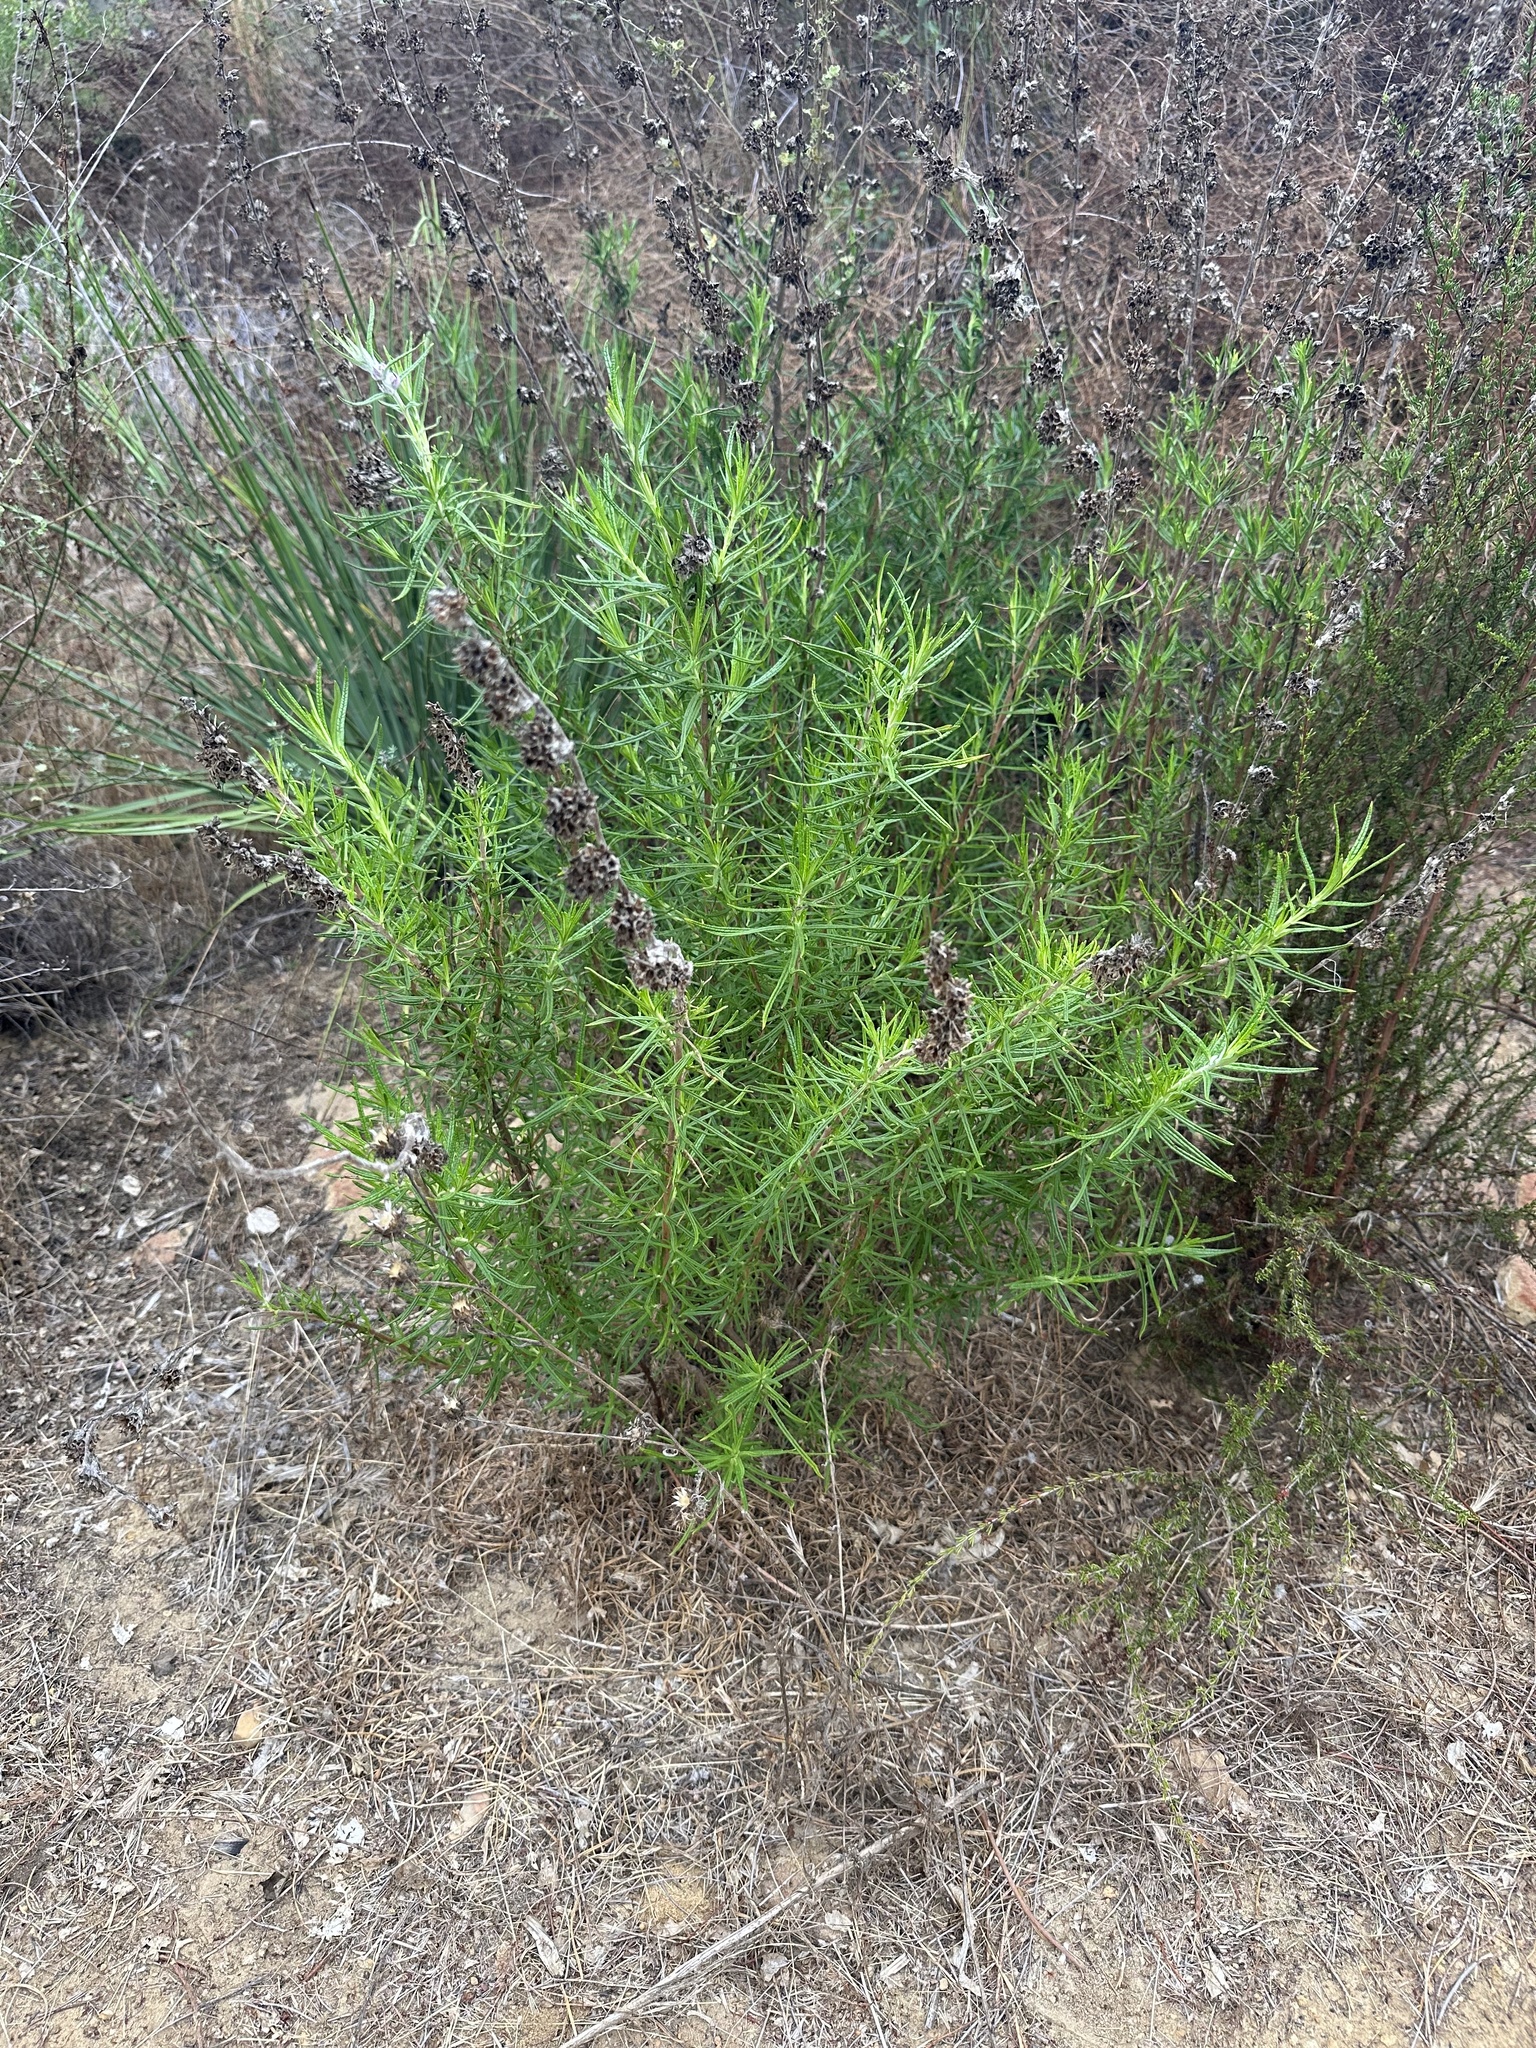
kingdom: Plantae
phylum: Tracheophyta
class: Magnoliopsida
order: Lamiales
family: Lamiaceae
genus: Trichostema
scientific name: Trichostema lanatum
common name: Woolly bluecurls
